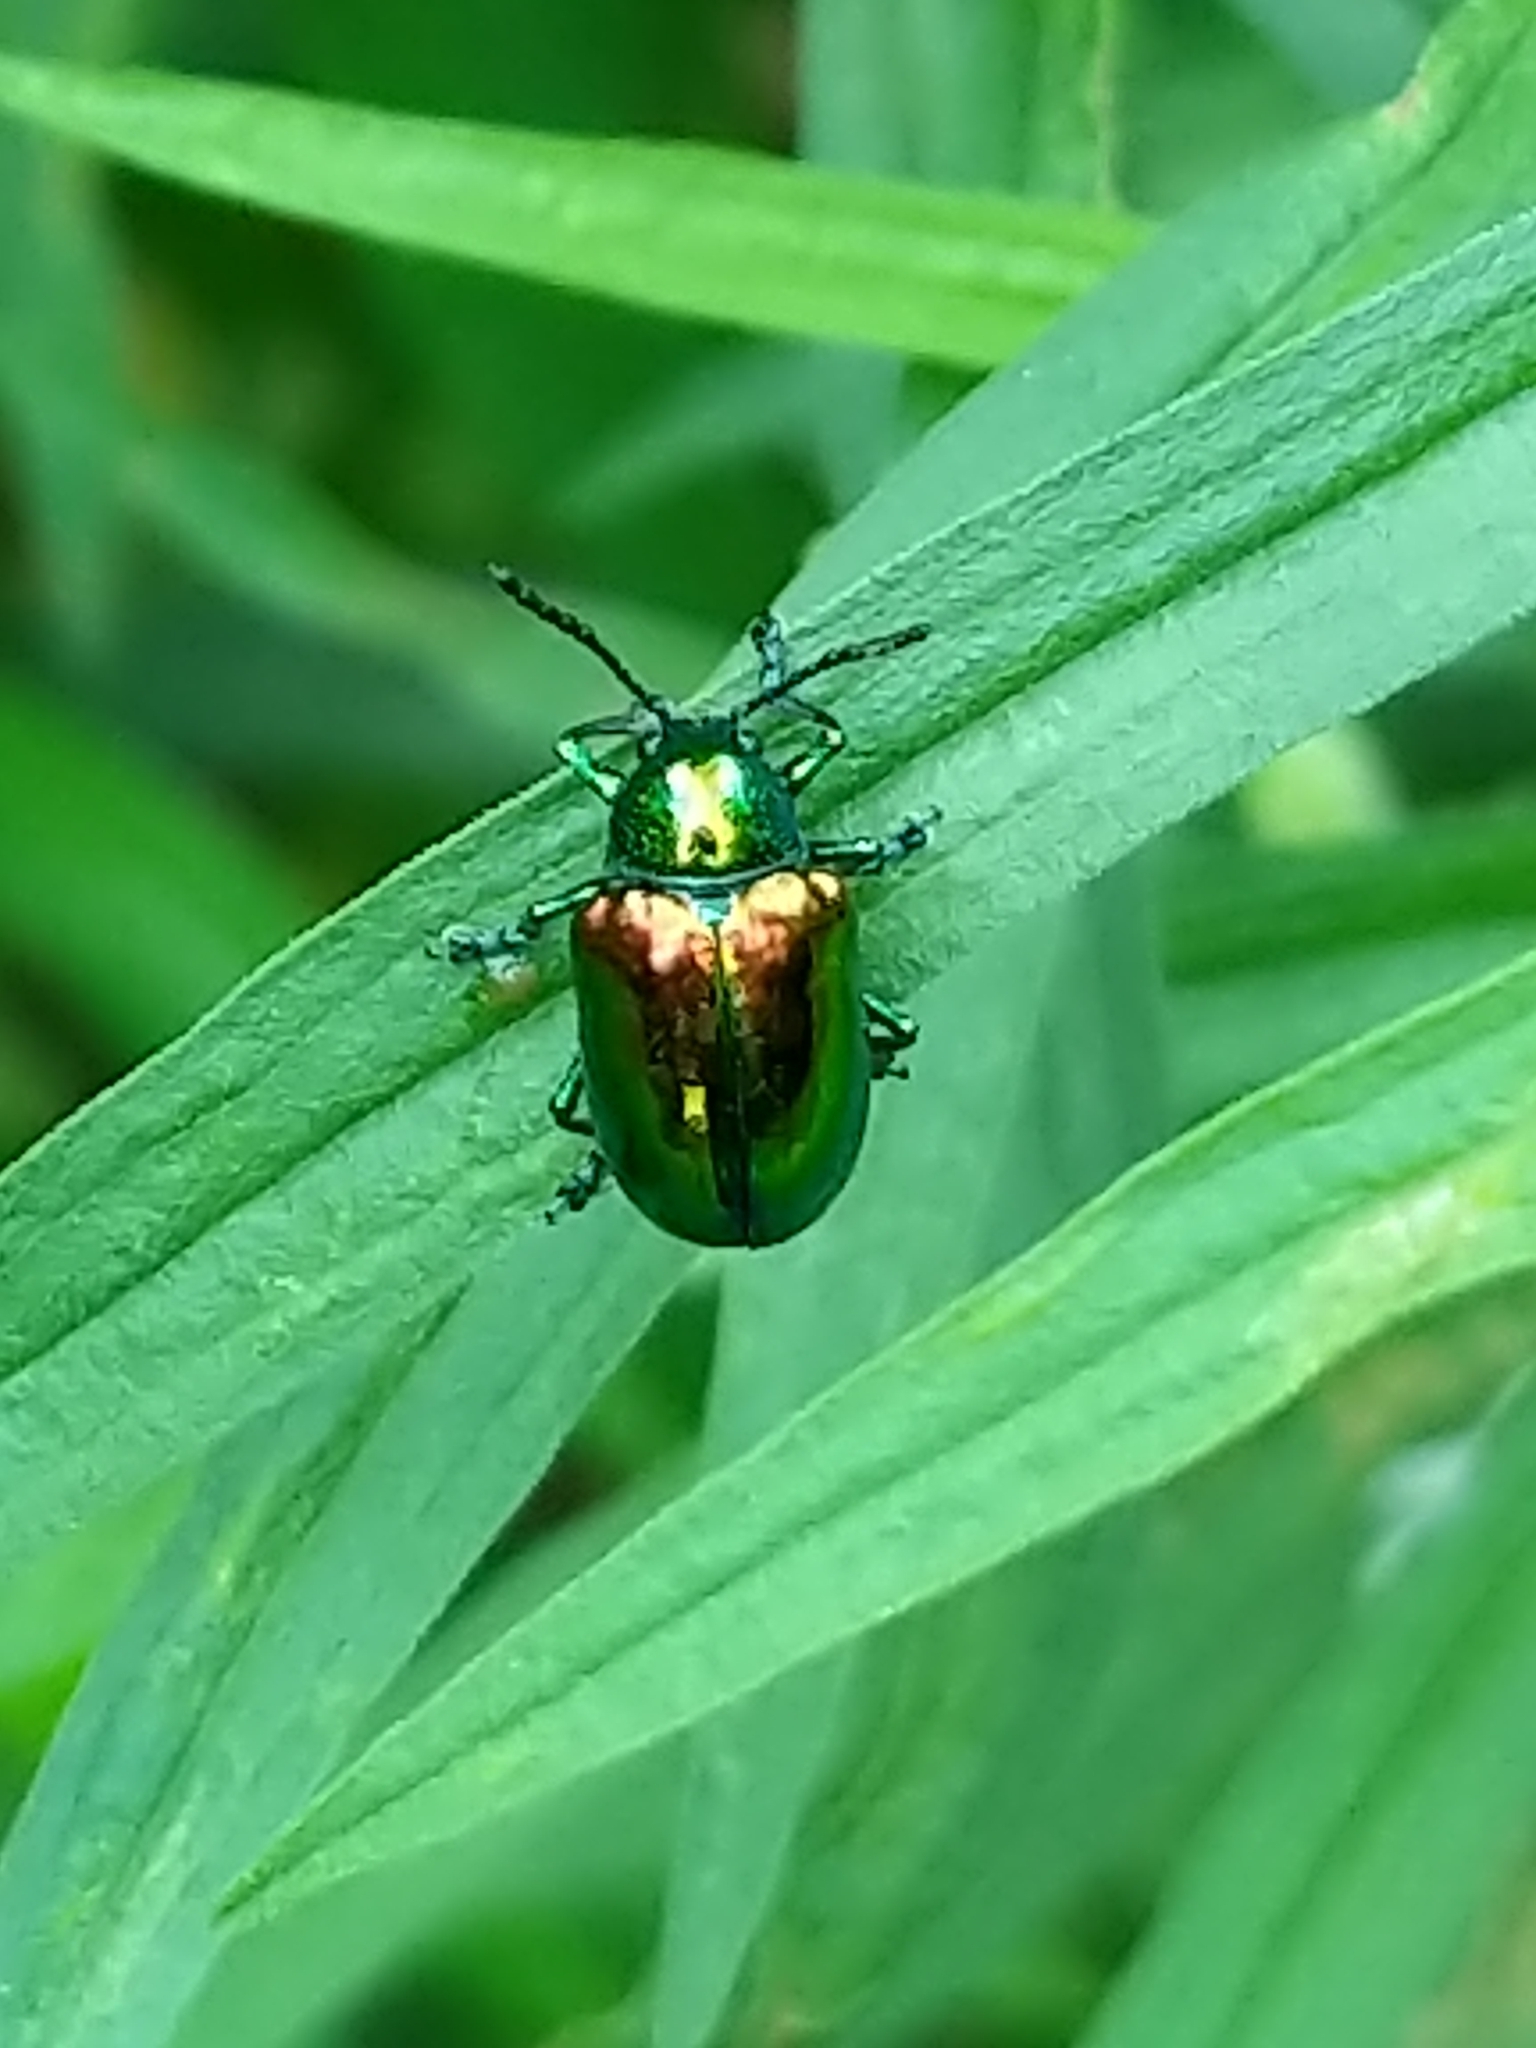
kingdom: Animalia
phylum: Arthropoda
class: Insecta
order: Coleoptera
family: Chrysomelidae
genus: Chrysochus
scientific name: Chrysochus auratus
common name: Dogbane leaf beetle
